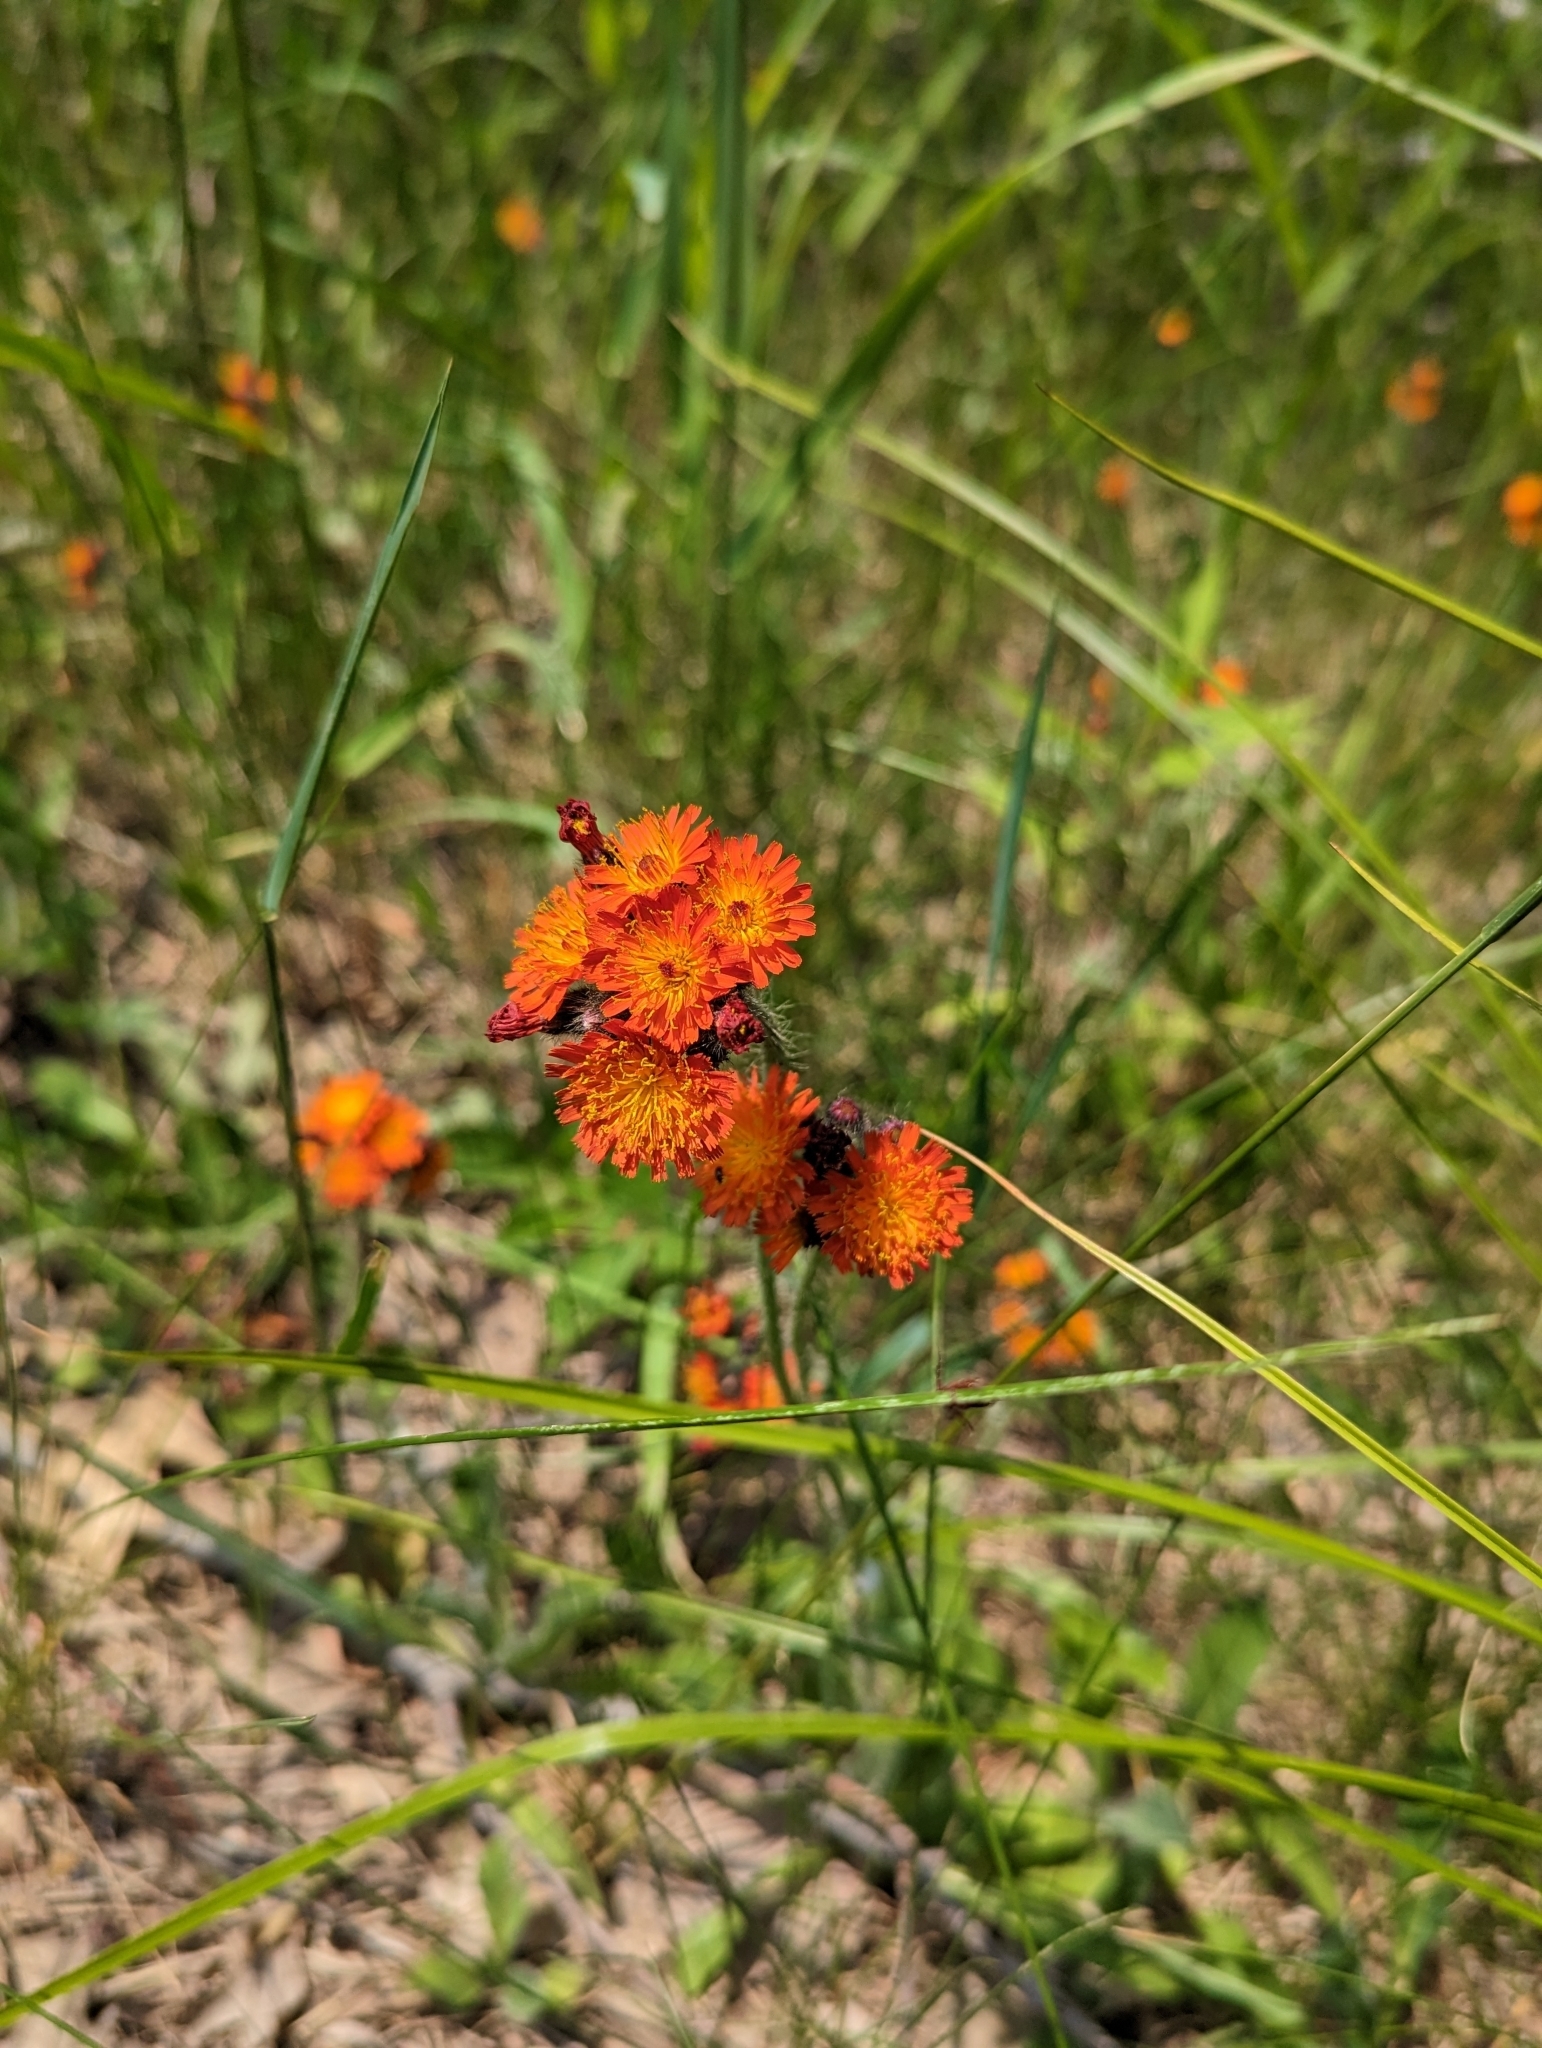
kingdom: Plantae
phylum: Tracheophyta
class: Magnoliopsida
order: Asterales
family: Asteraceae
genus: Pilosella
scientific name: Pilosella aurantiaca
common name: Fox-and-cubs
